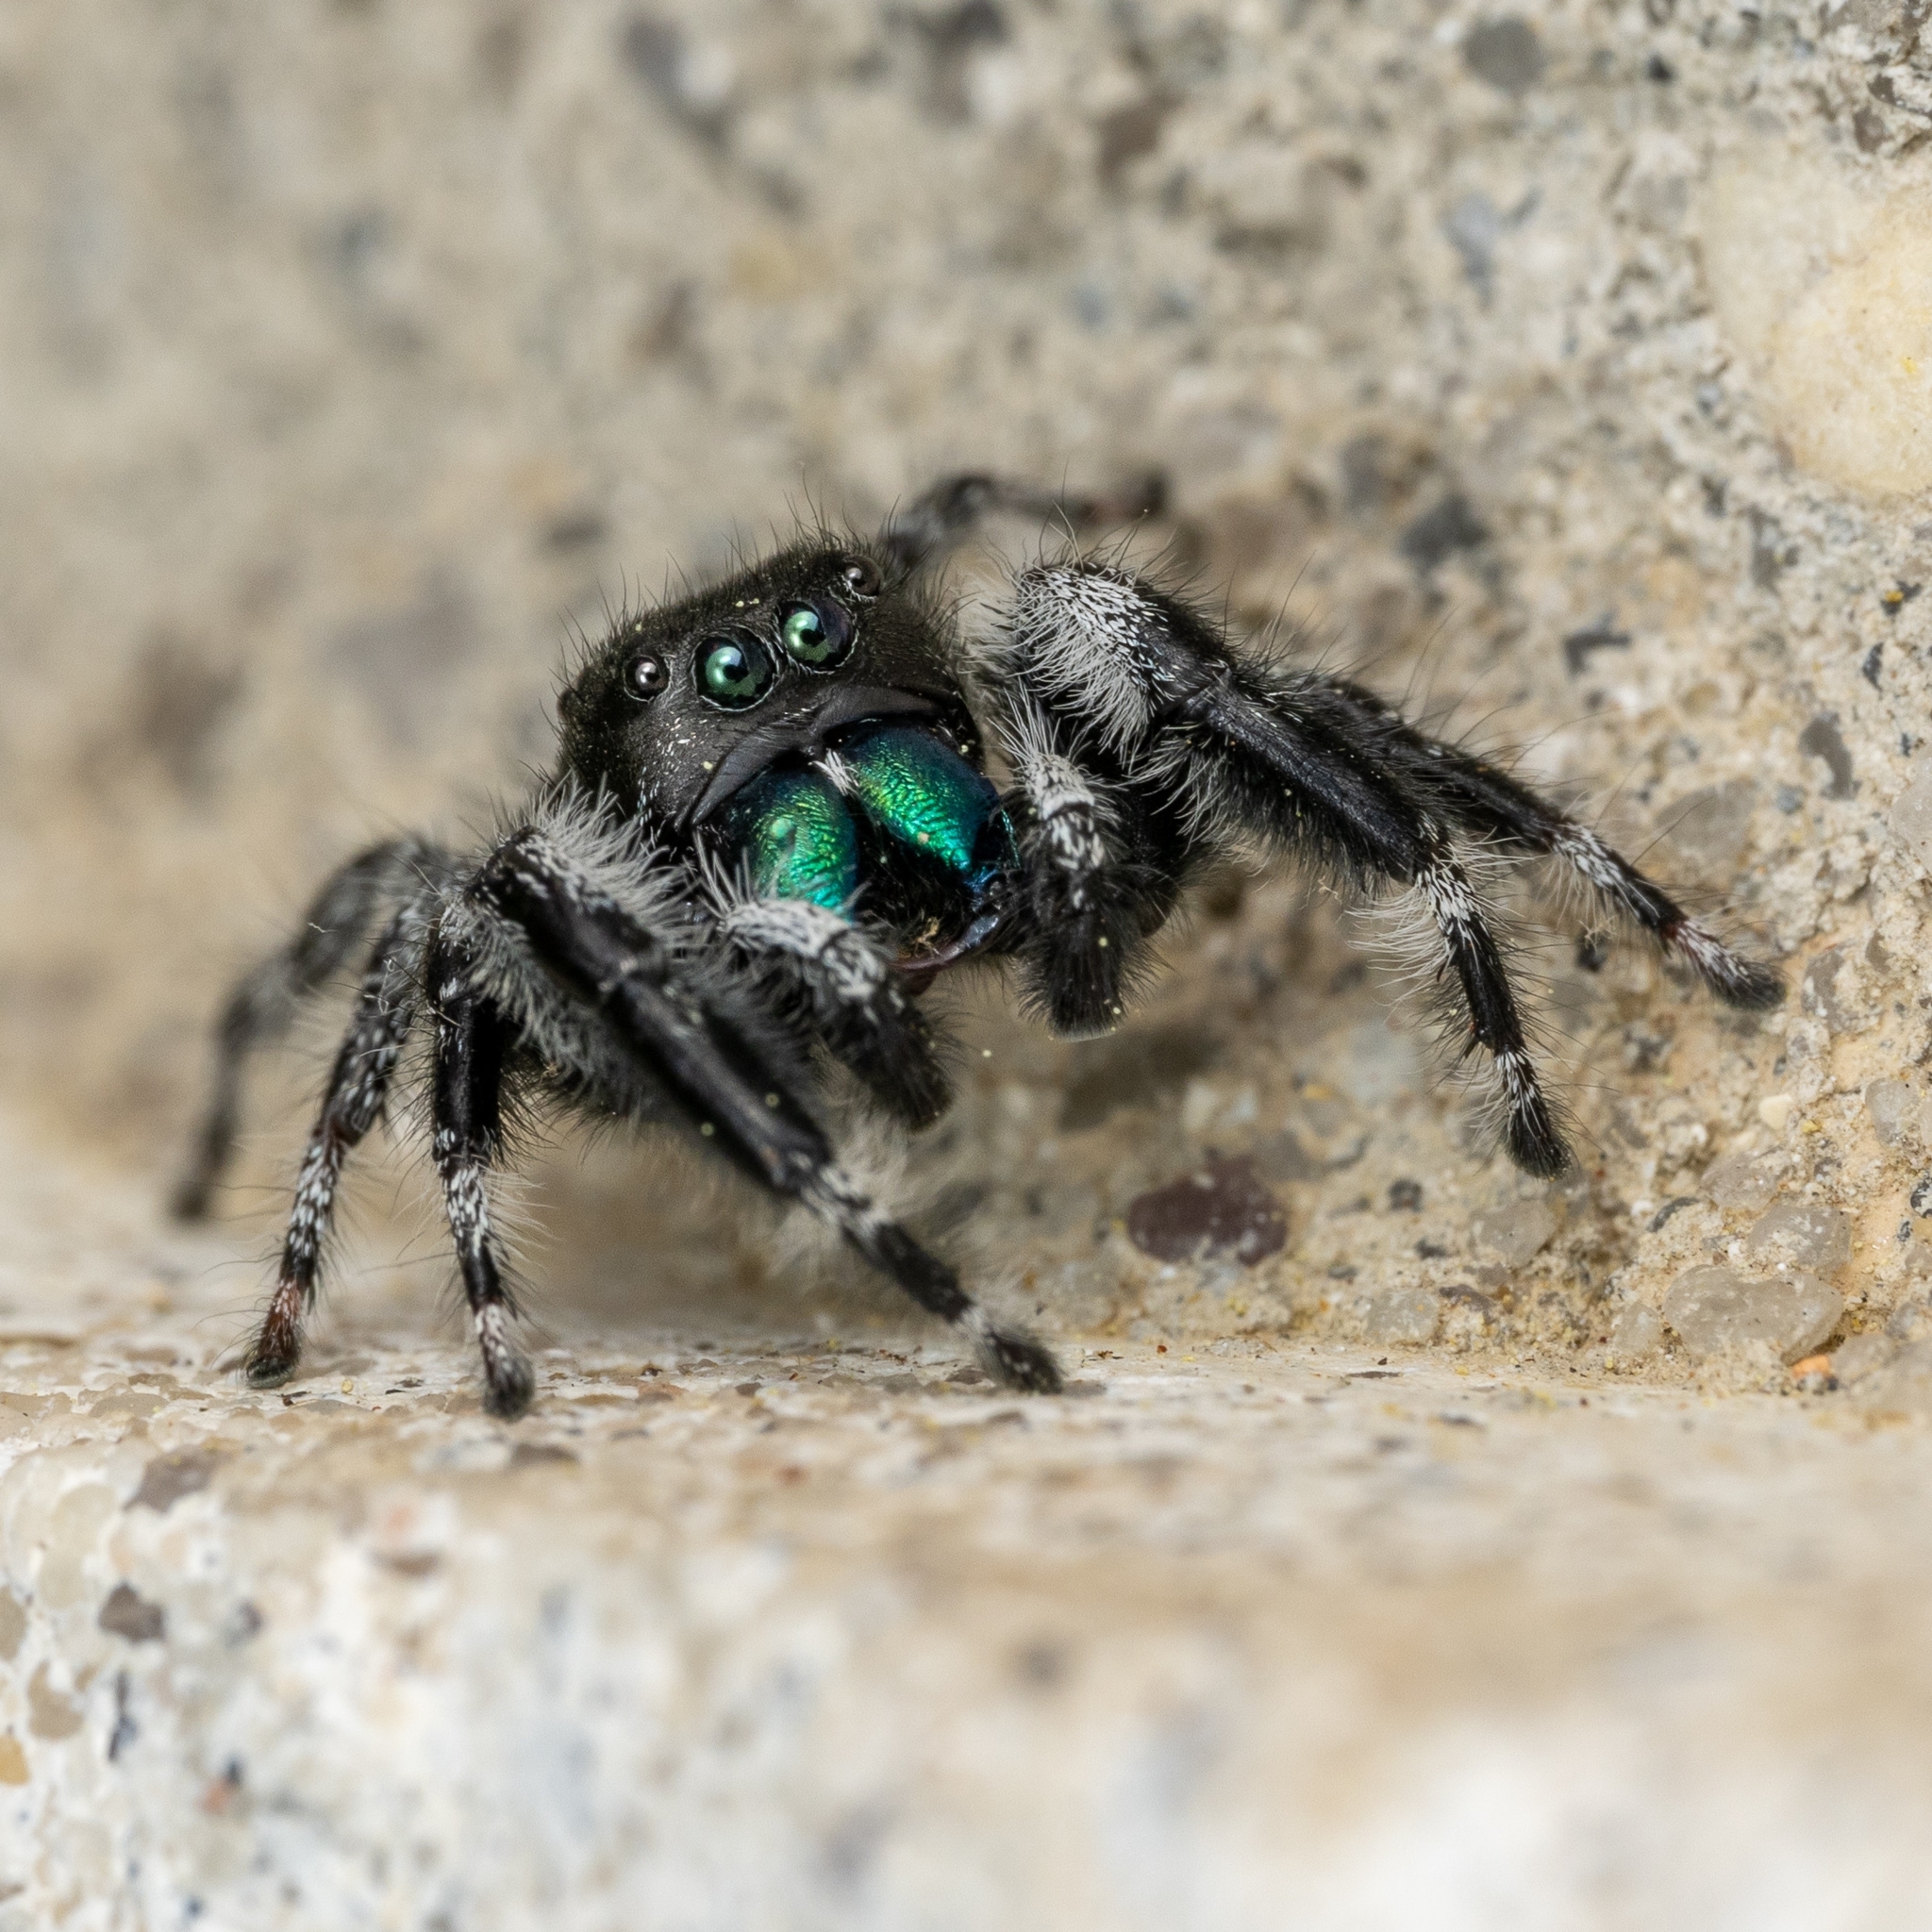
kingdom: Animalia
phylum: Arthropoda
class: Arachnida
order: Araneae
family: Salticidae
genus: Phidippus
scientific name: Phidippus audax
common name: Bold jumper
